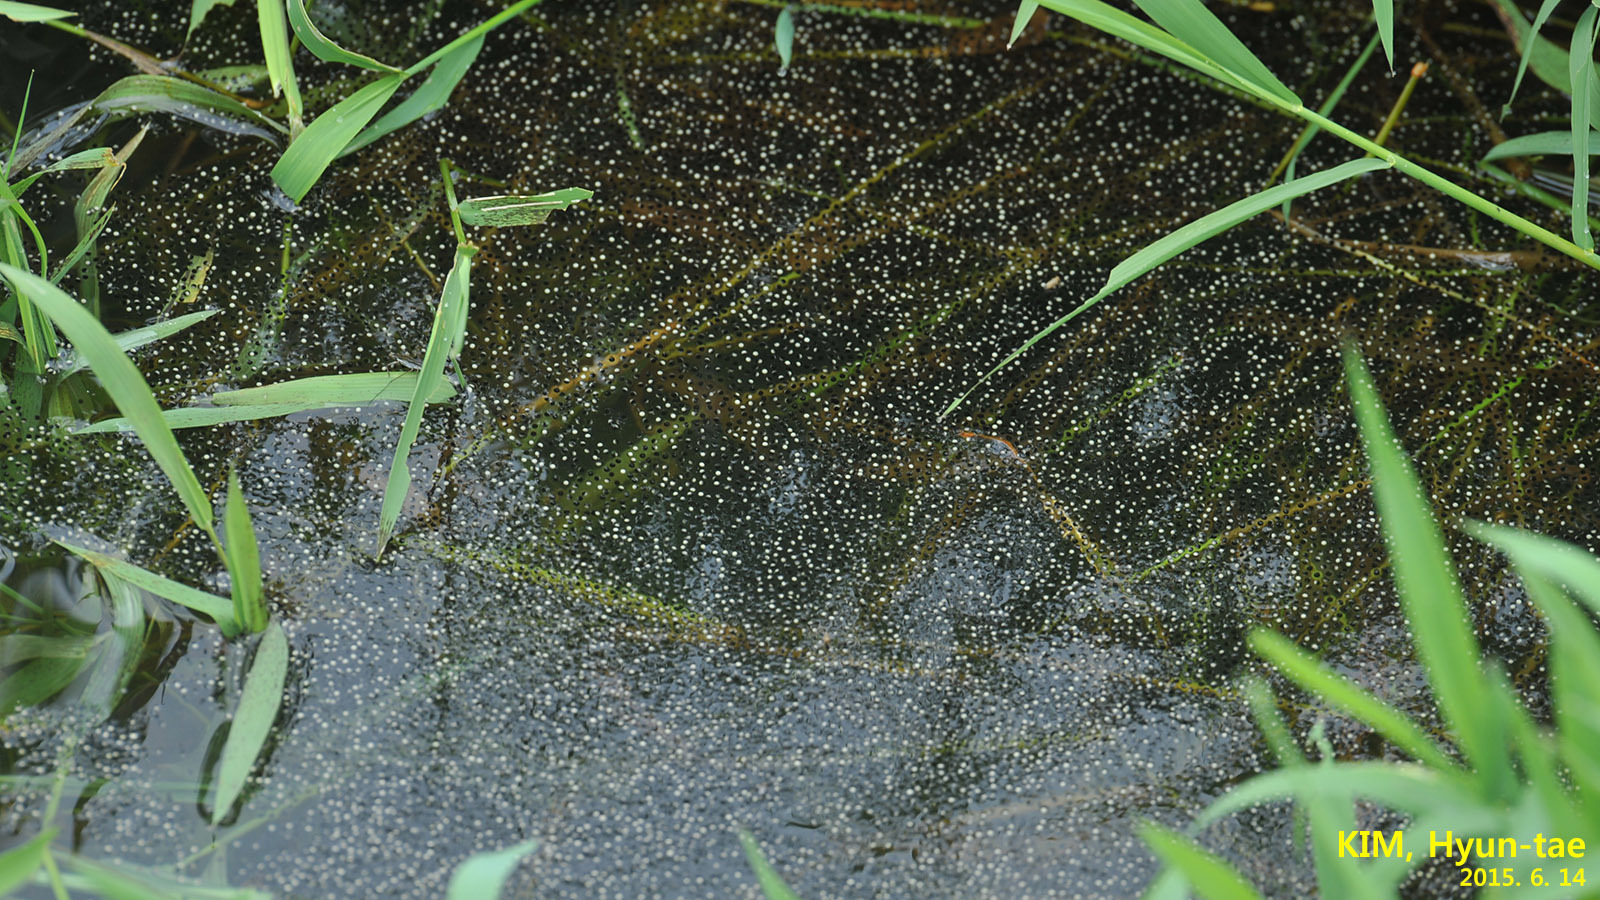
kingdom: Animalia
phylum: Chordata
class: Amphibia
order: Anura
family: Ranidae
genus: Lithobates
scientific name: Lithobates catesbeianus
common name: American bullfrog
